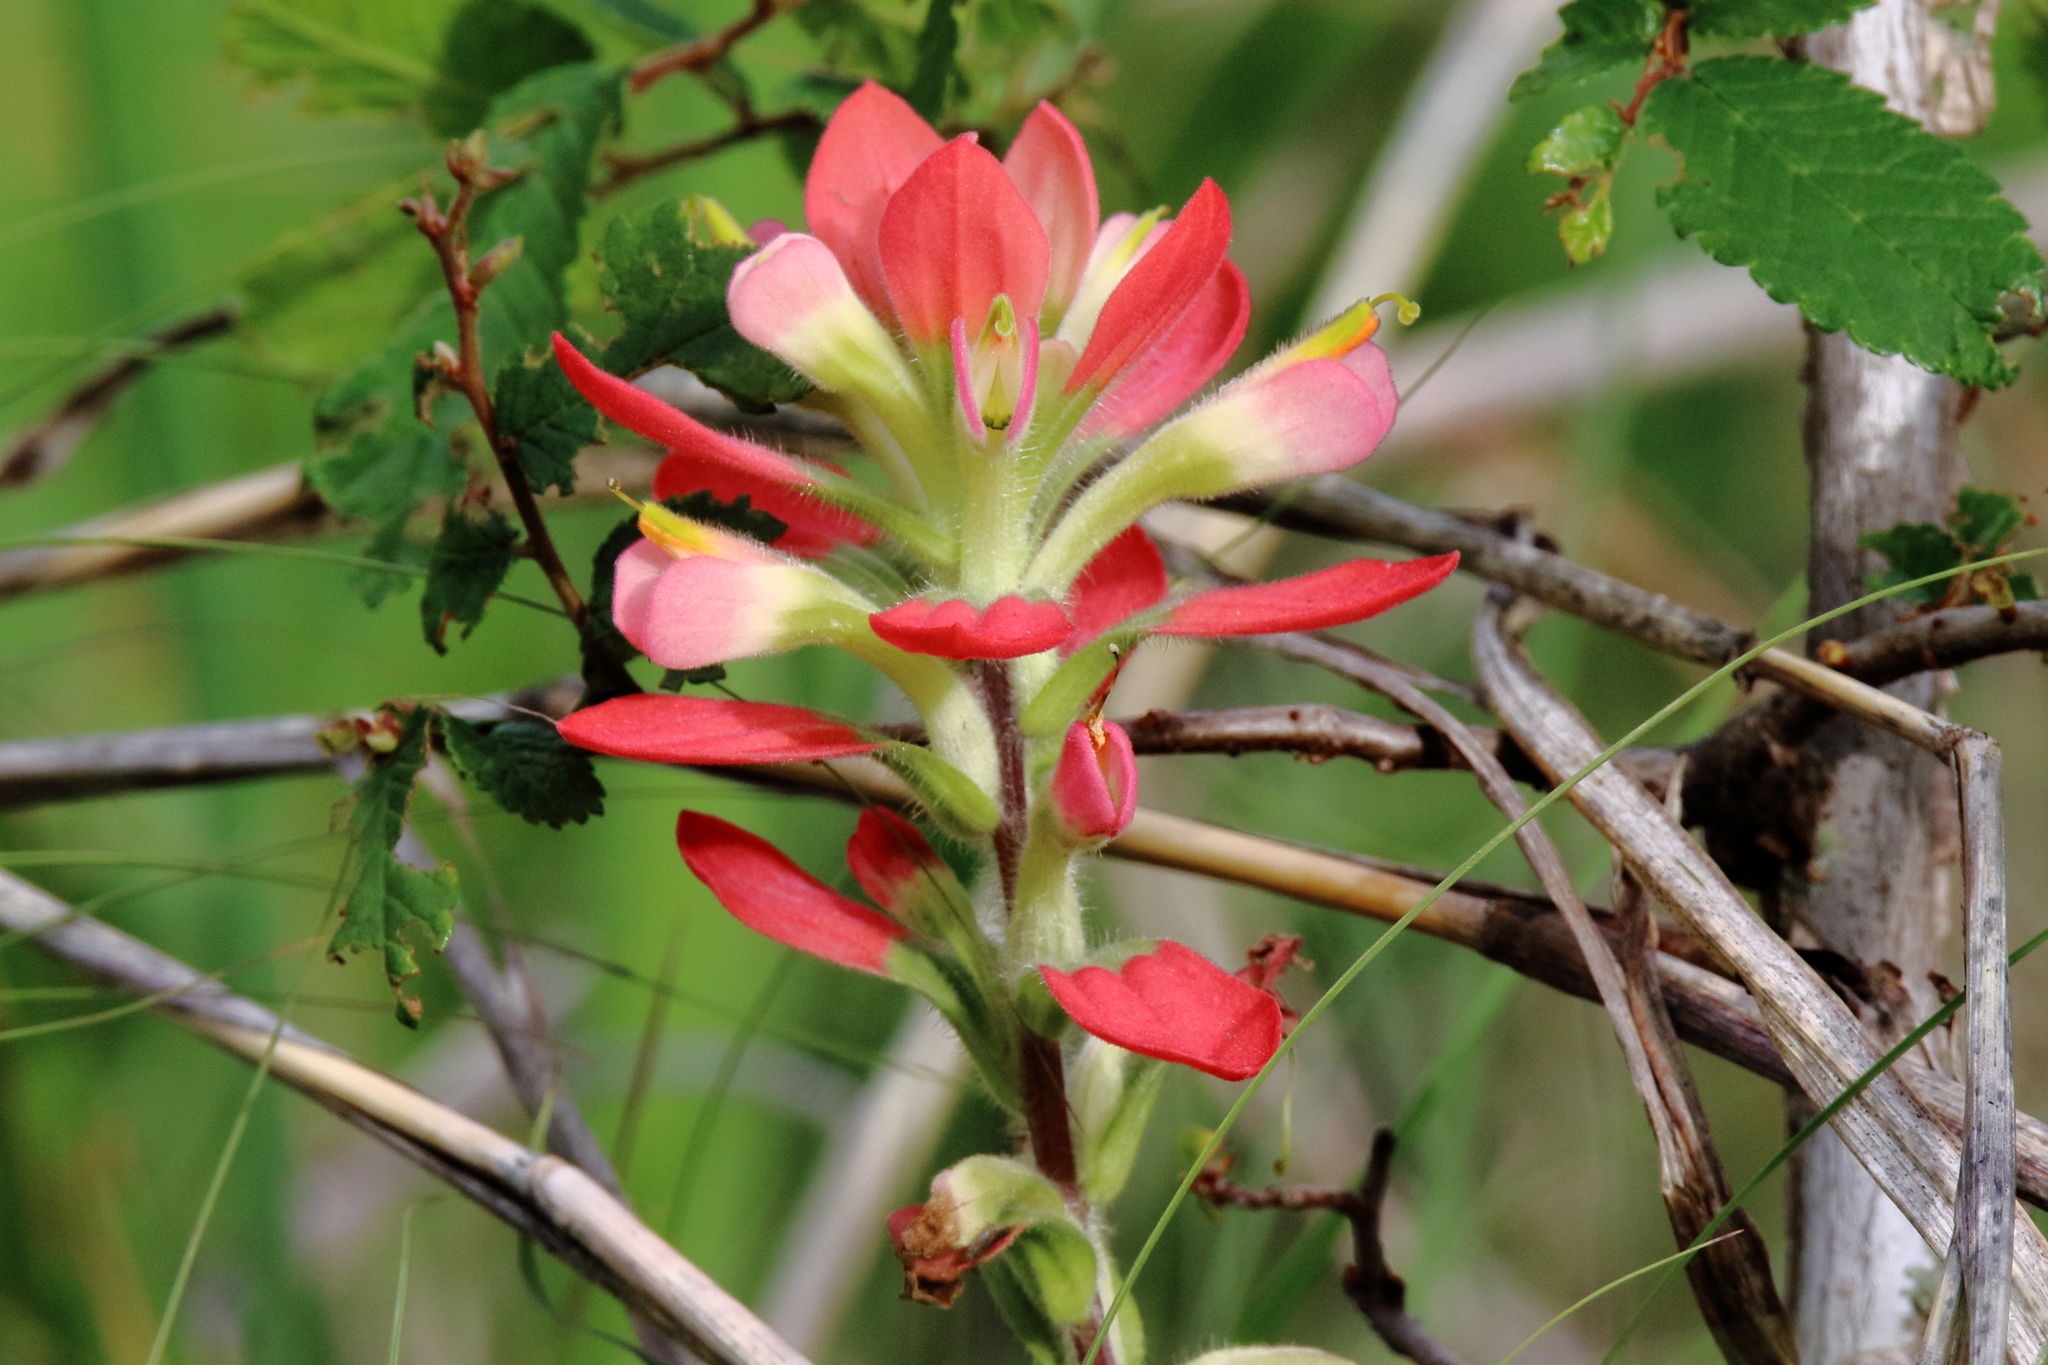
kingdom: Plantae
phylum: Tracheophyta
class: Magnoliopsida
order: Lamiales
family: Orobanchaceae
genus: Castilleja
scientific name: Castilleja indivisa
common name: Texas paintbrush
